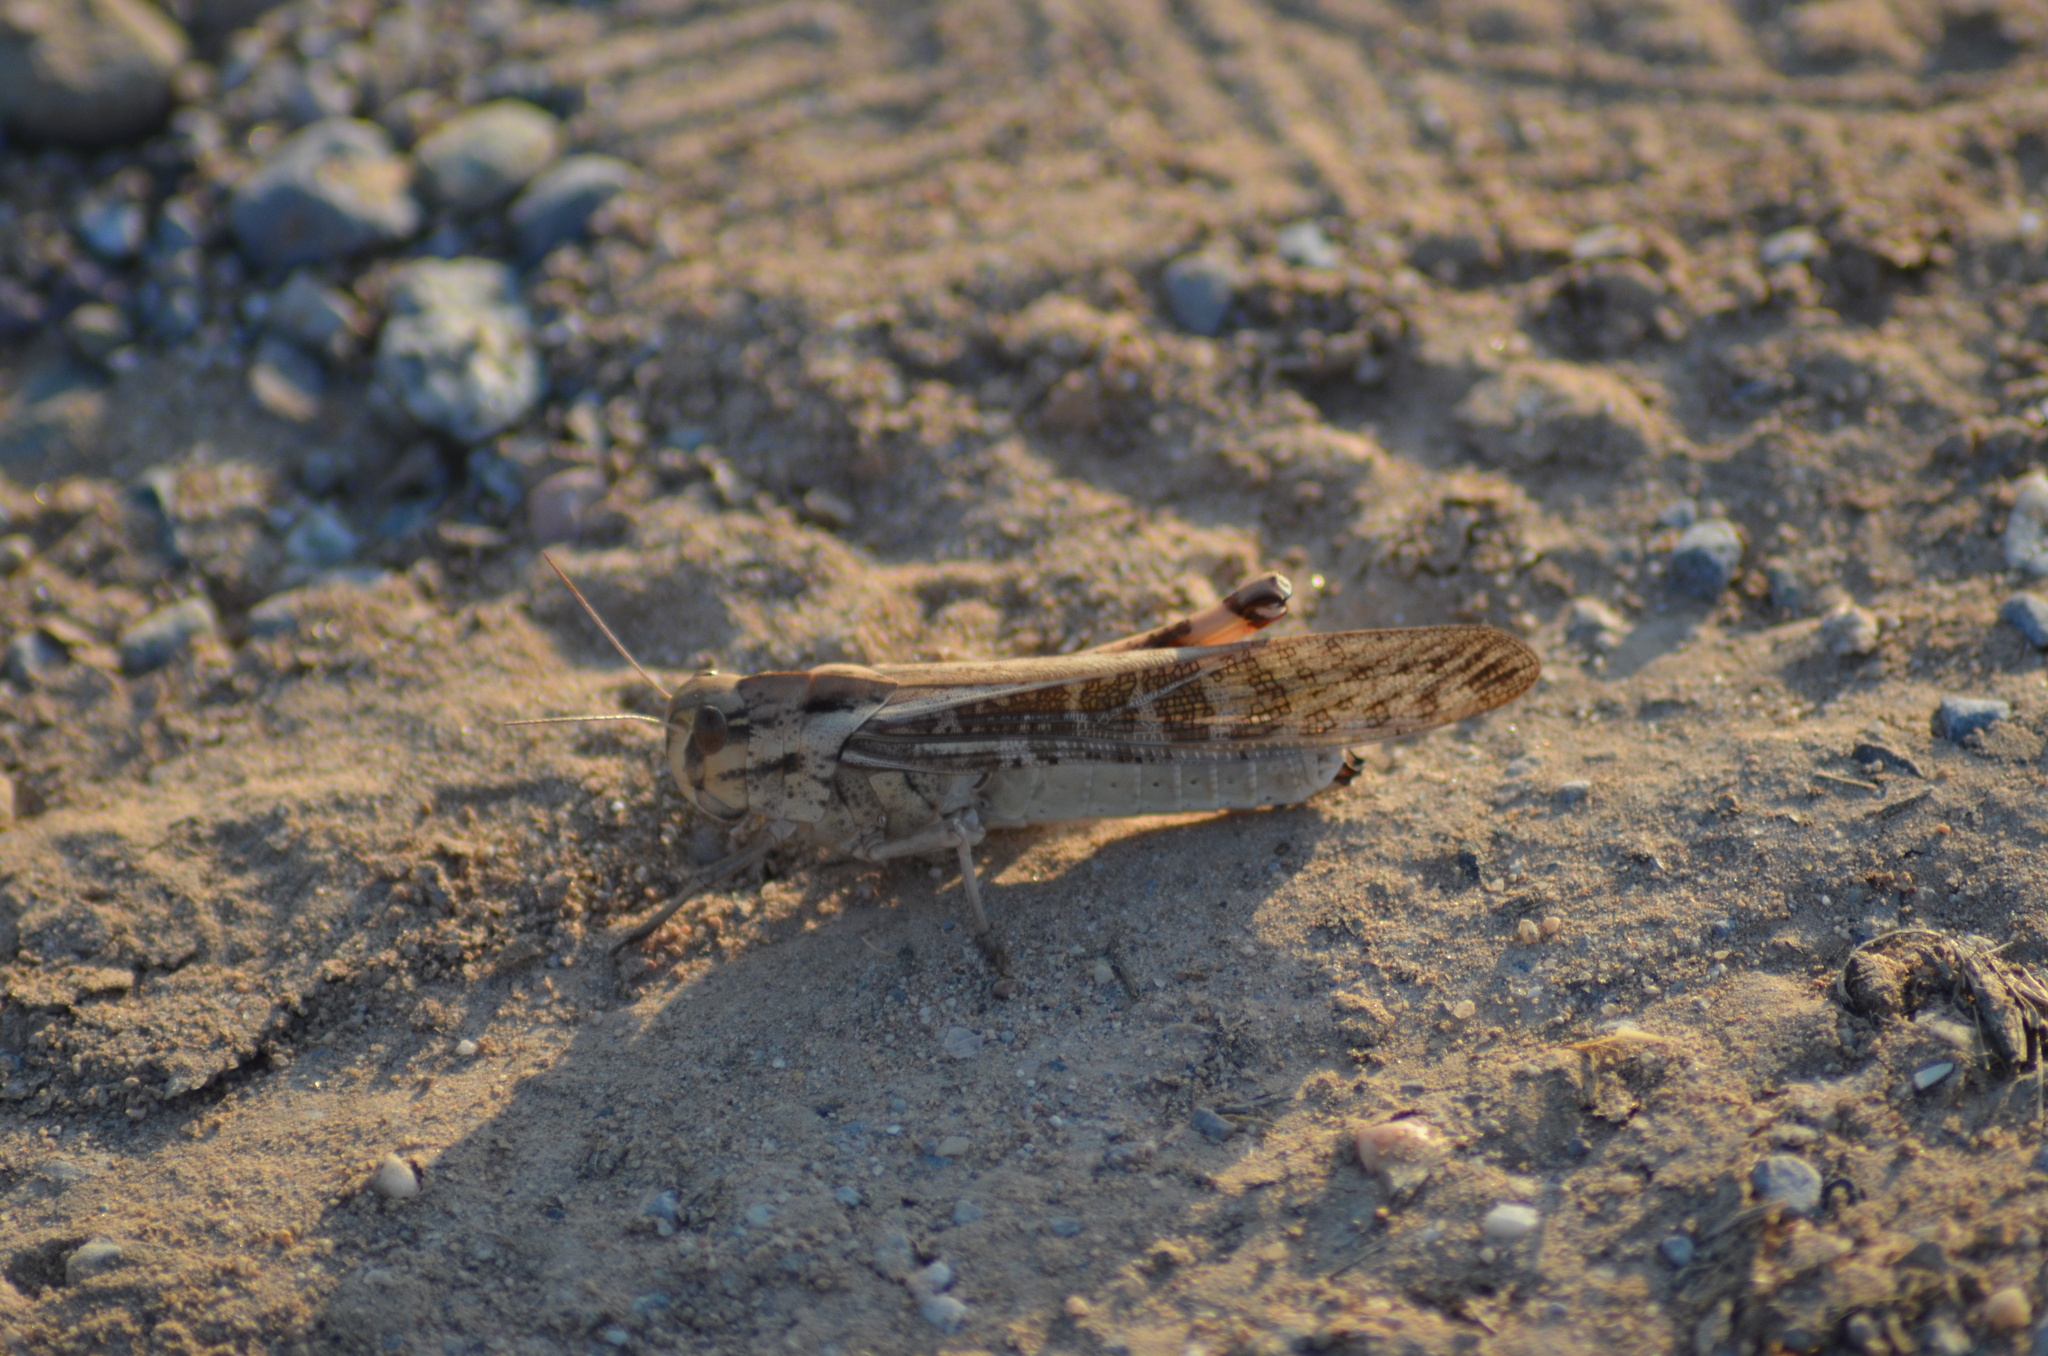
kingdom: Animalia
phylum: Arthropoda
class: Insecta
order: Orthoptera
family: Acrididae
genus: Locusta
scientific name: Locusta migratoria
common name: Migratory locust
